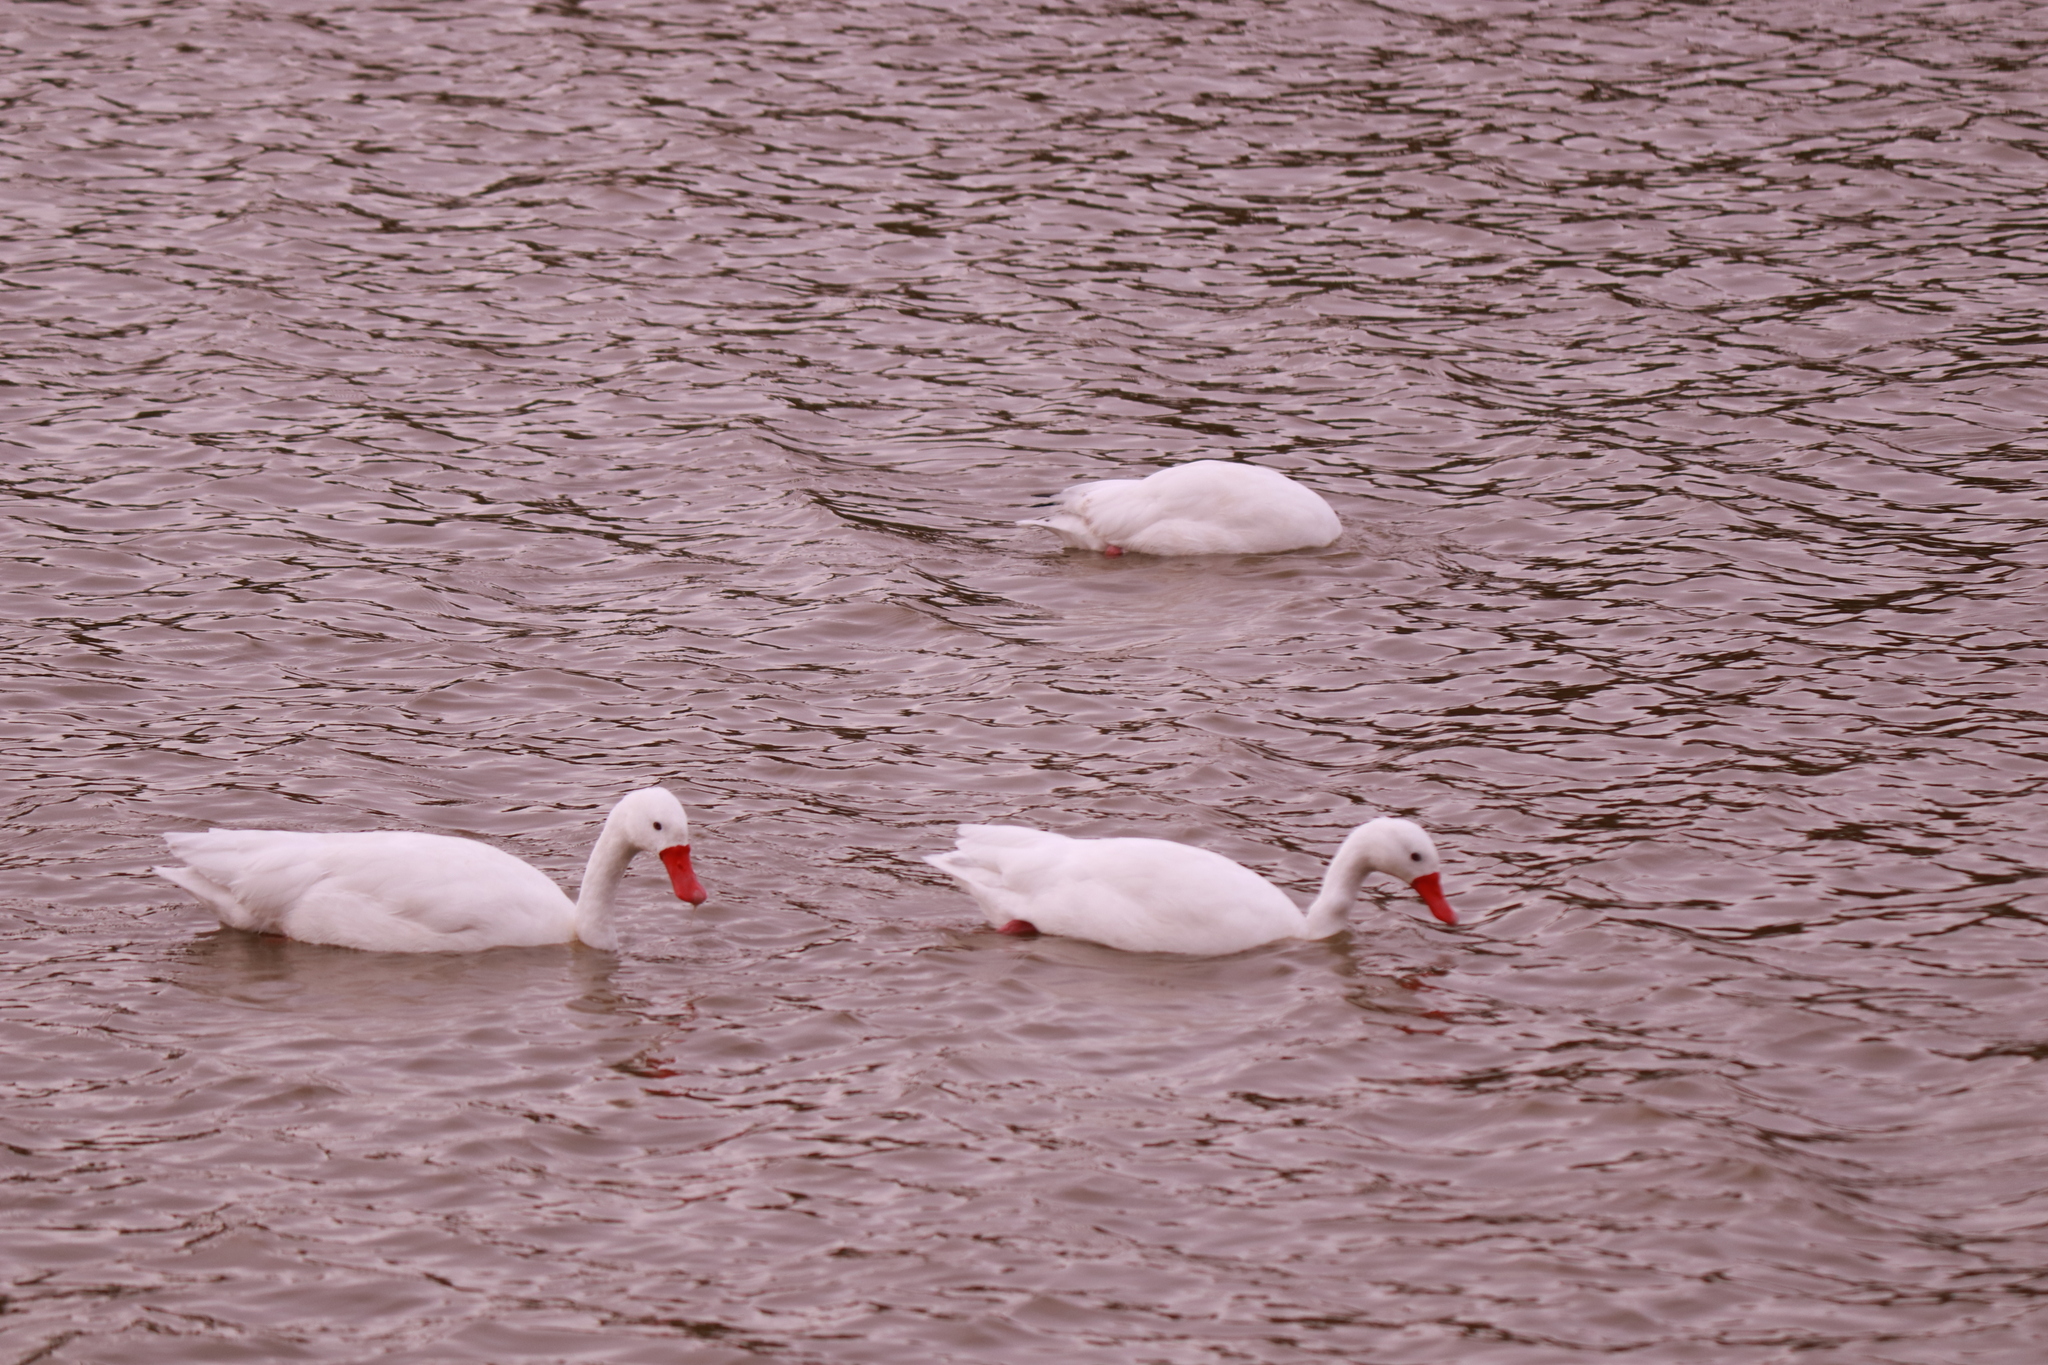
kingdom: Animalia
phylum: Chordata
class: Aves
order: Anseriformes
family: Anatidae
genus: Coscoroba
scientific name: Coscoroba coscoroba
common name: Coscoroba swan
